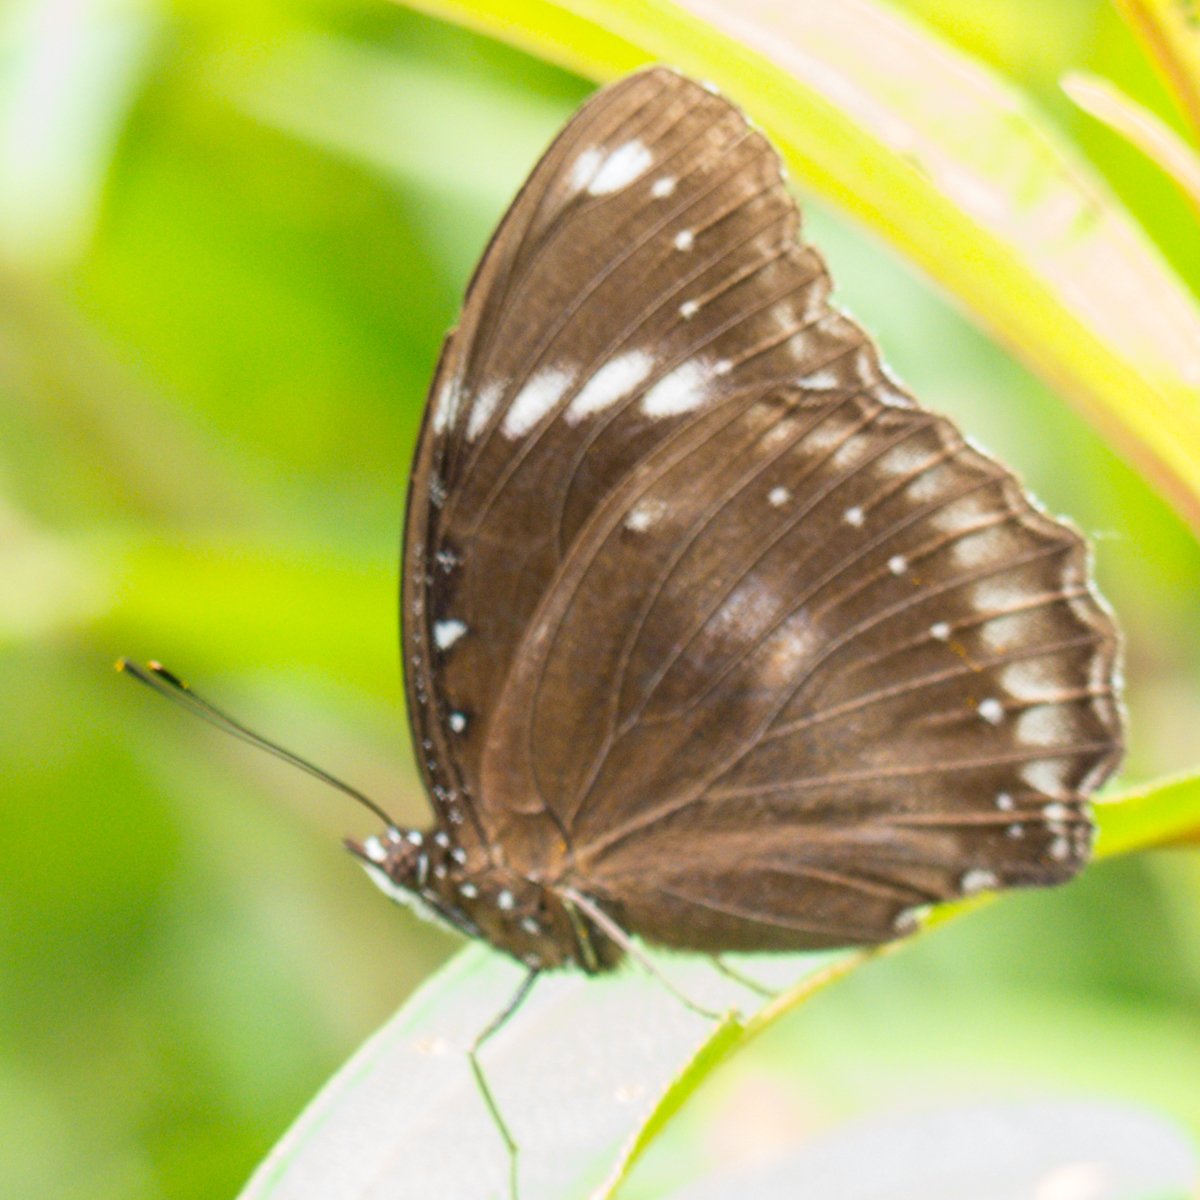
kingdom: Animalia
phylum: Arthropoda
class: Insecta
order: Lepidoptera
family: Nymphalidae
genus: Hypolimnas
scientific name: Hypolimnas bolina
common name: Great eggfly
